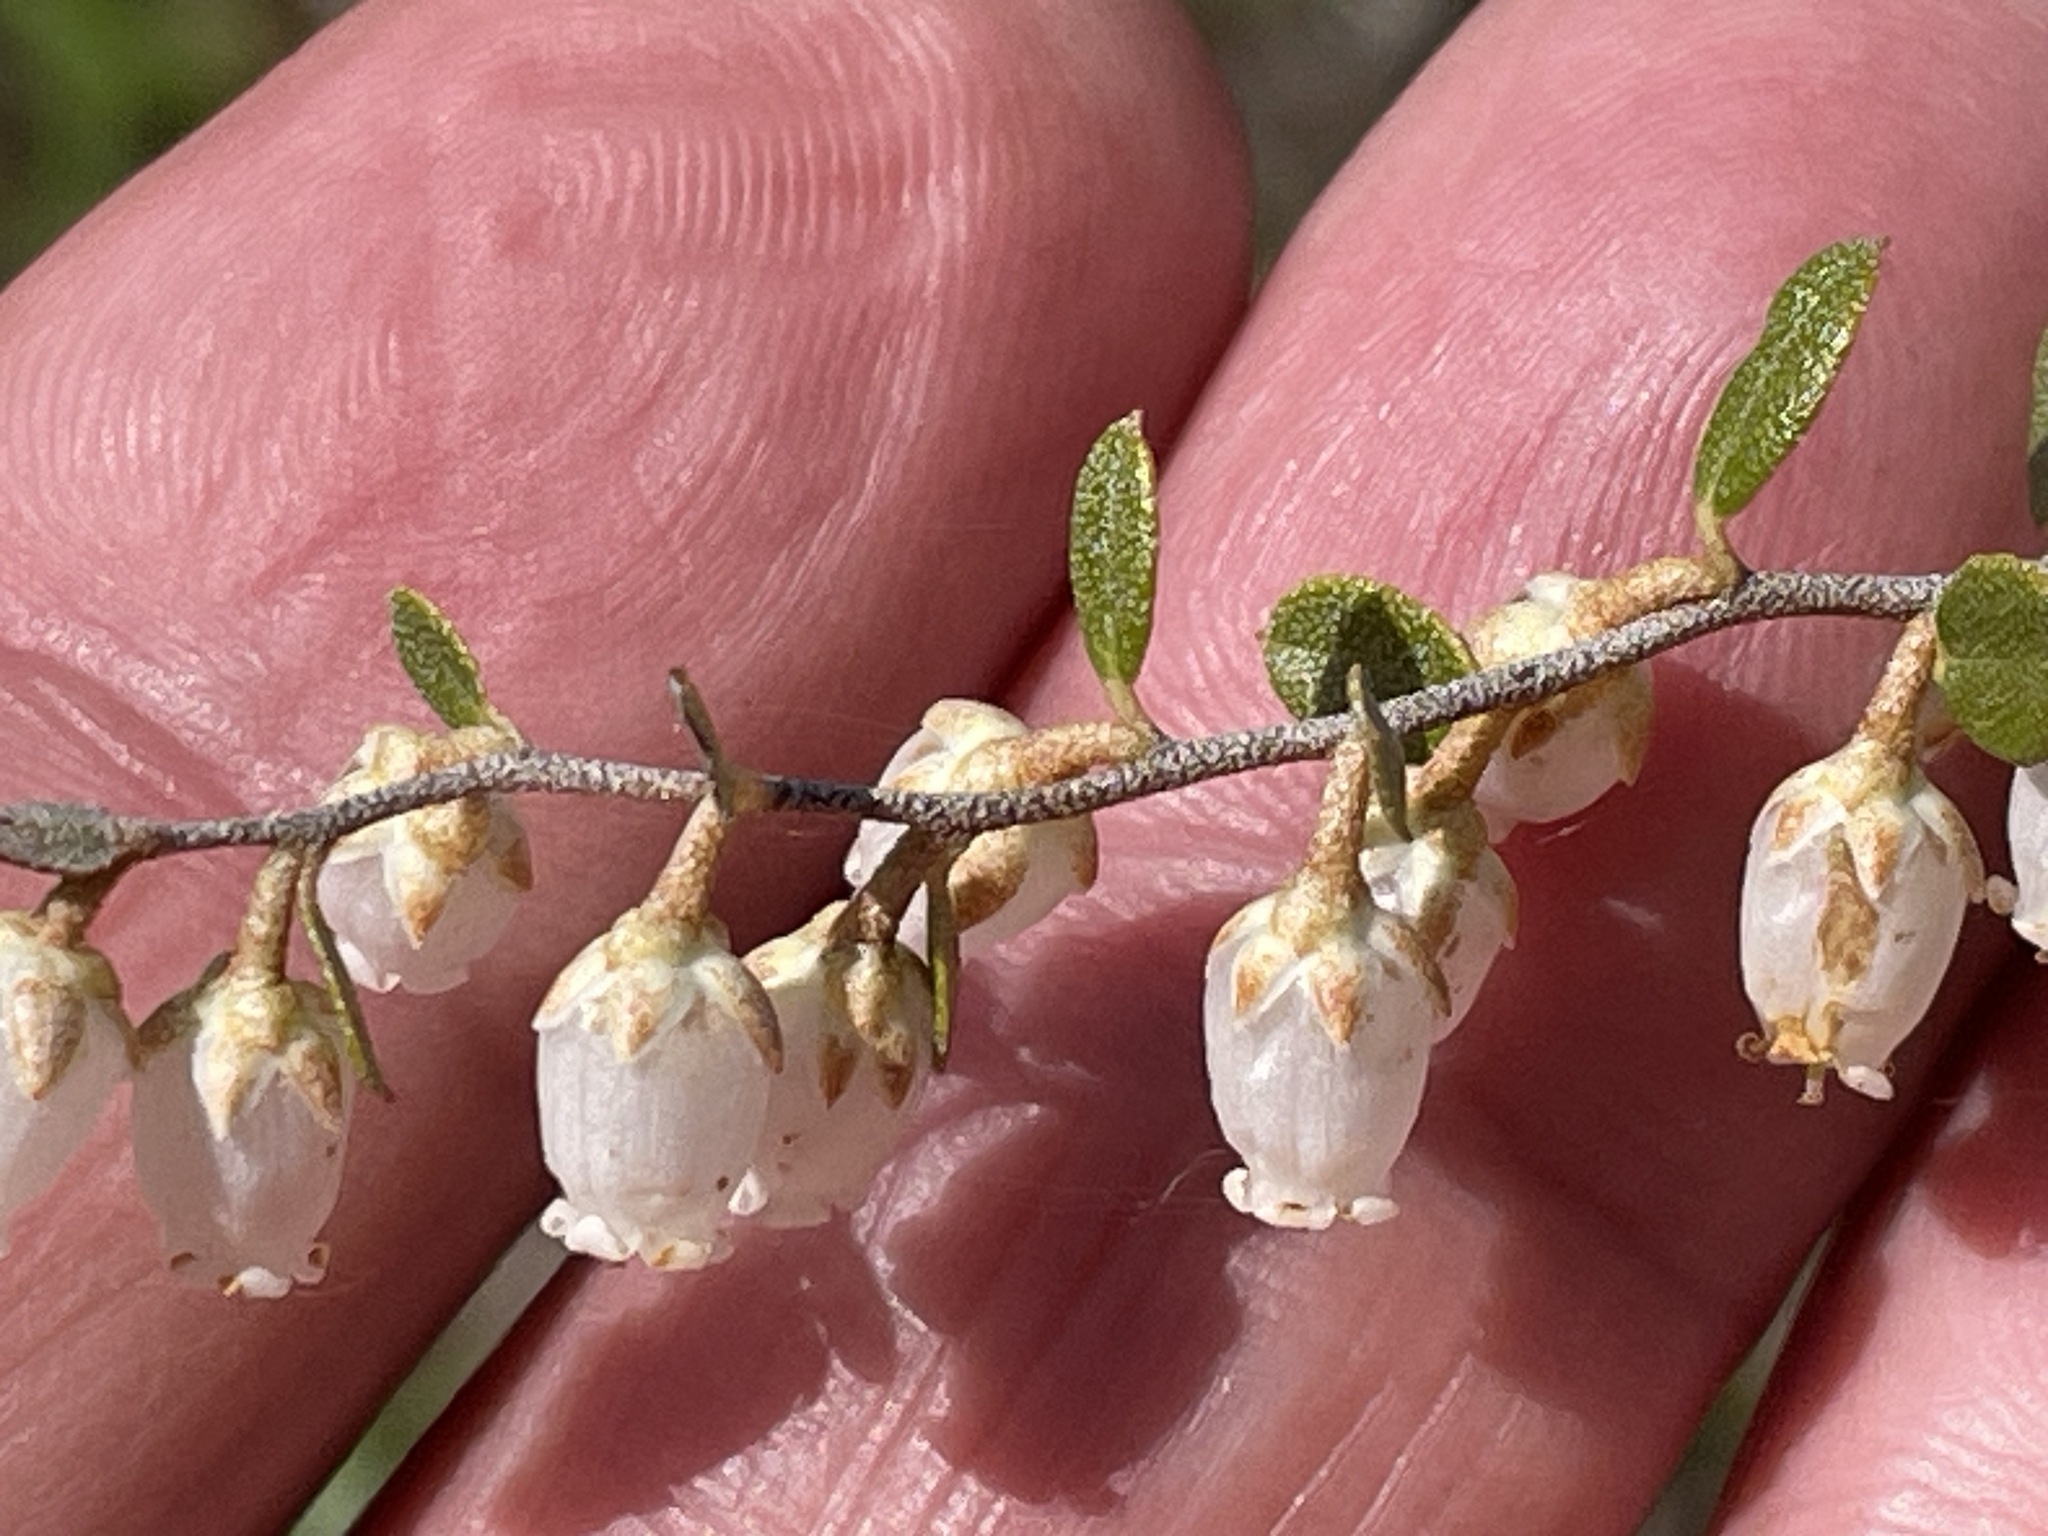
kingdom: Plantae
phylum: Tracheophyta
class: Magnoliopsida
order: Ericales
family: Ericaceae
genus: Chamaedaphne
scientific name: Chamaedaphne calyculata
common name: Leatherleaf
